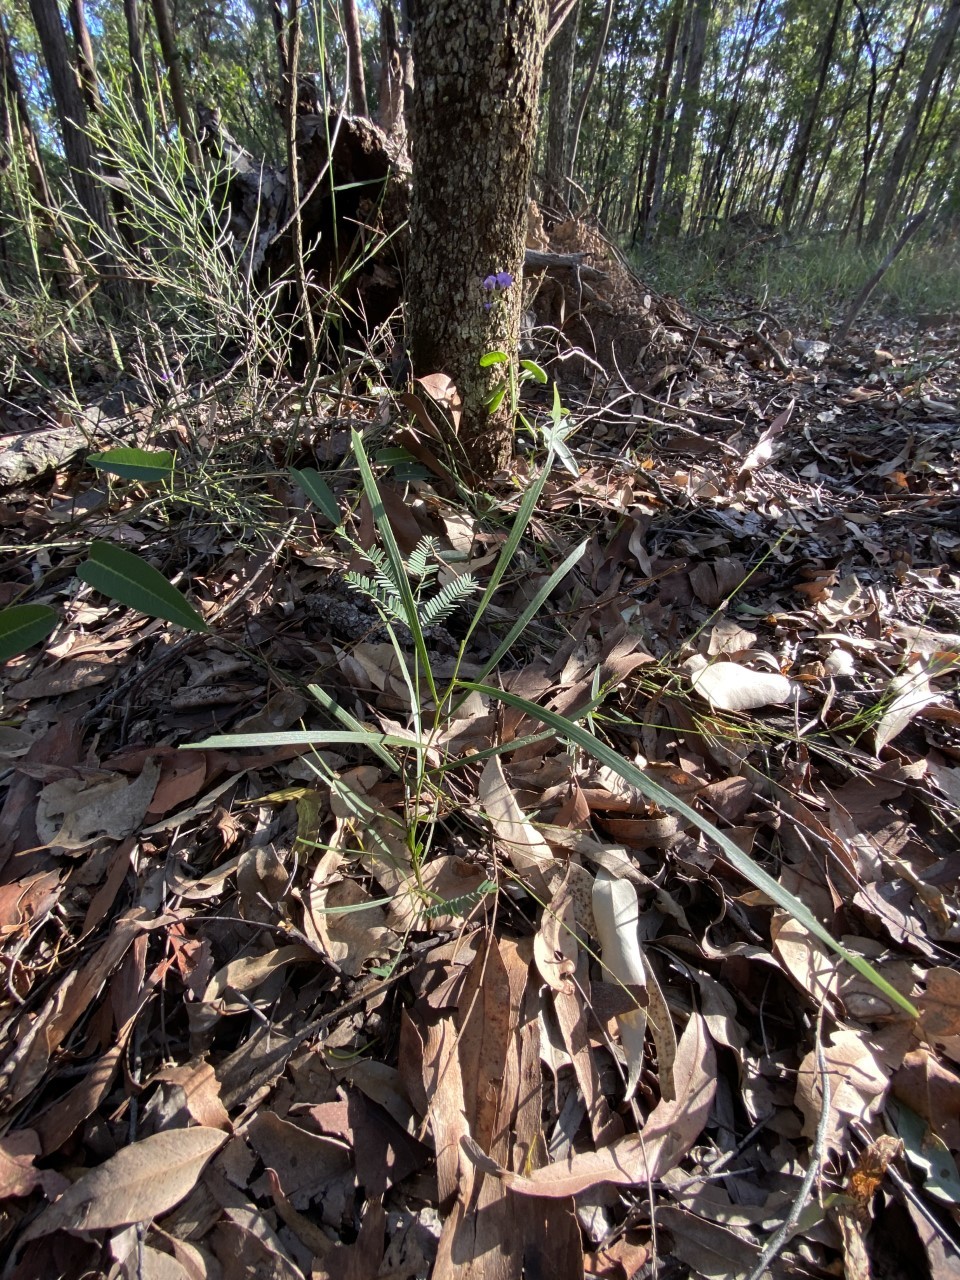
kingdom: Plantae
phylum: Tracheophyta
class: Magnoliopsida
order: Fabales
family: Fabaceae
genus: Acacia
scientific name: Acacia maidenii
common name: Maiden's wattle
